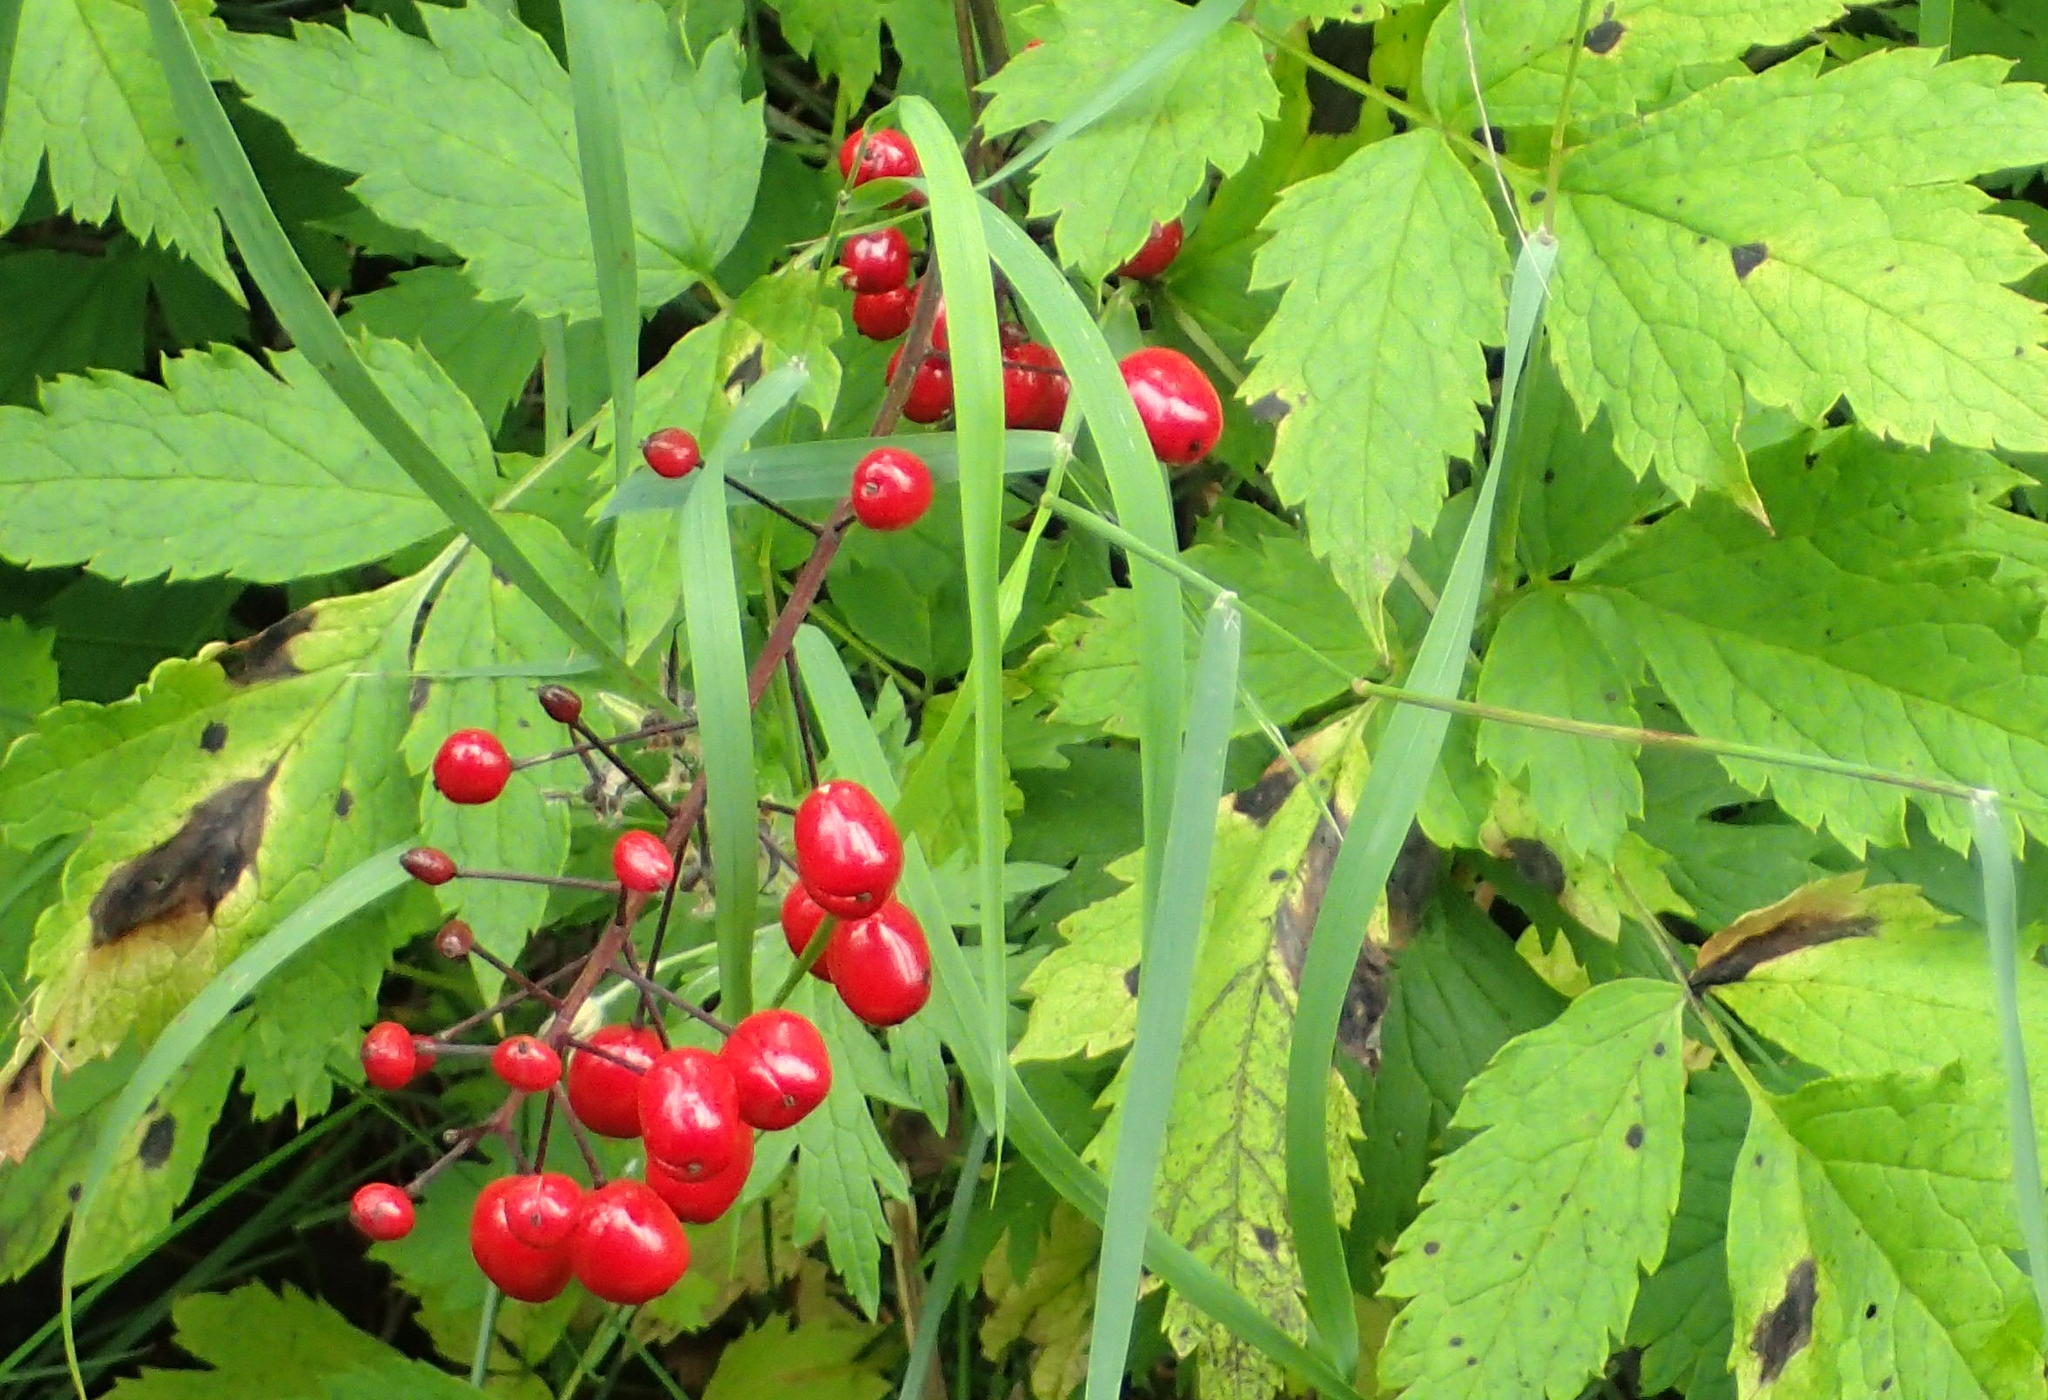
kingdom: Plantae
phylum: Tracheophyta
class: Magnoliopsida
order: Ranunculales
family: Ranunculaceae
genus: Actaea
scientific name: Actaea rubra
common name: Red baneberry
